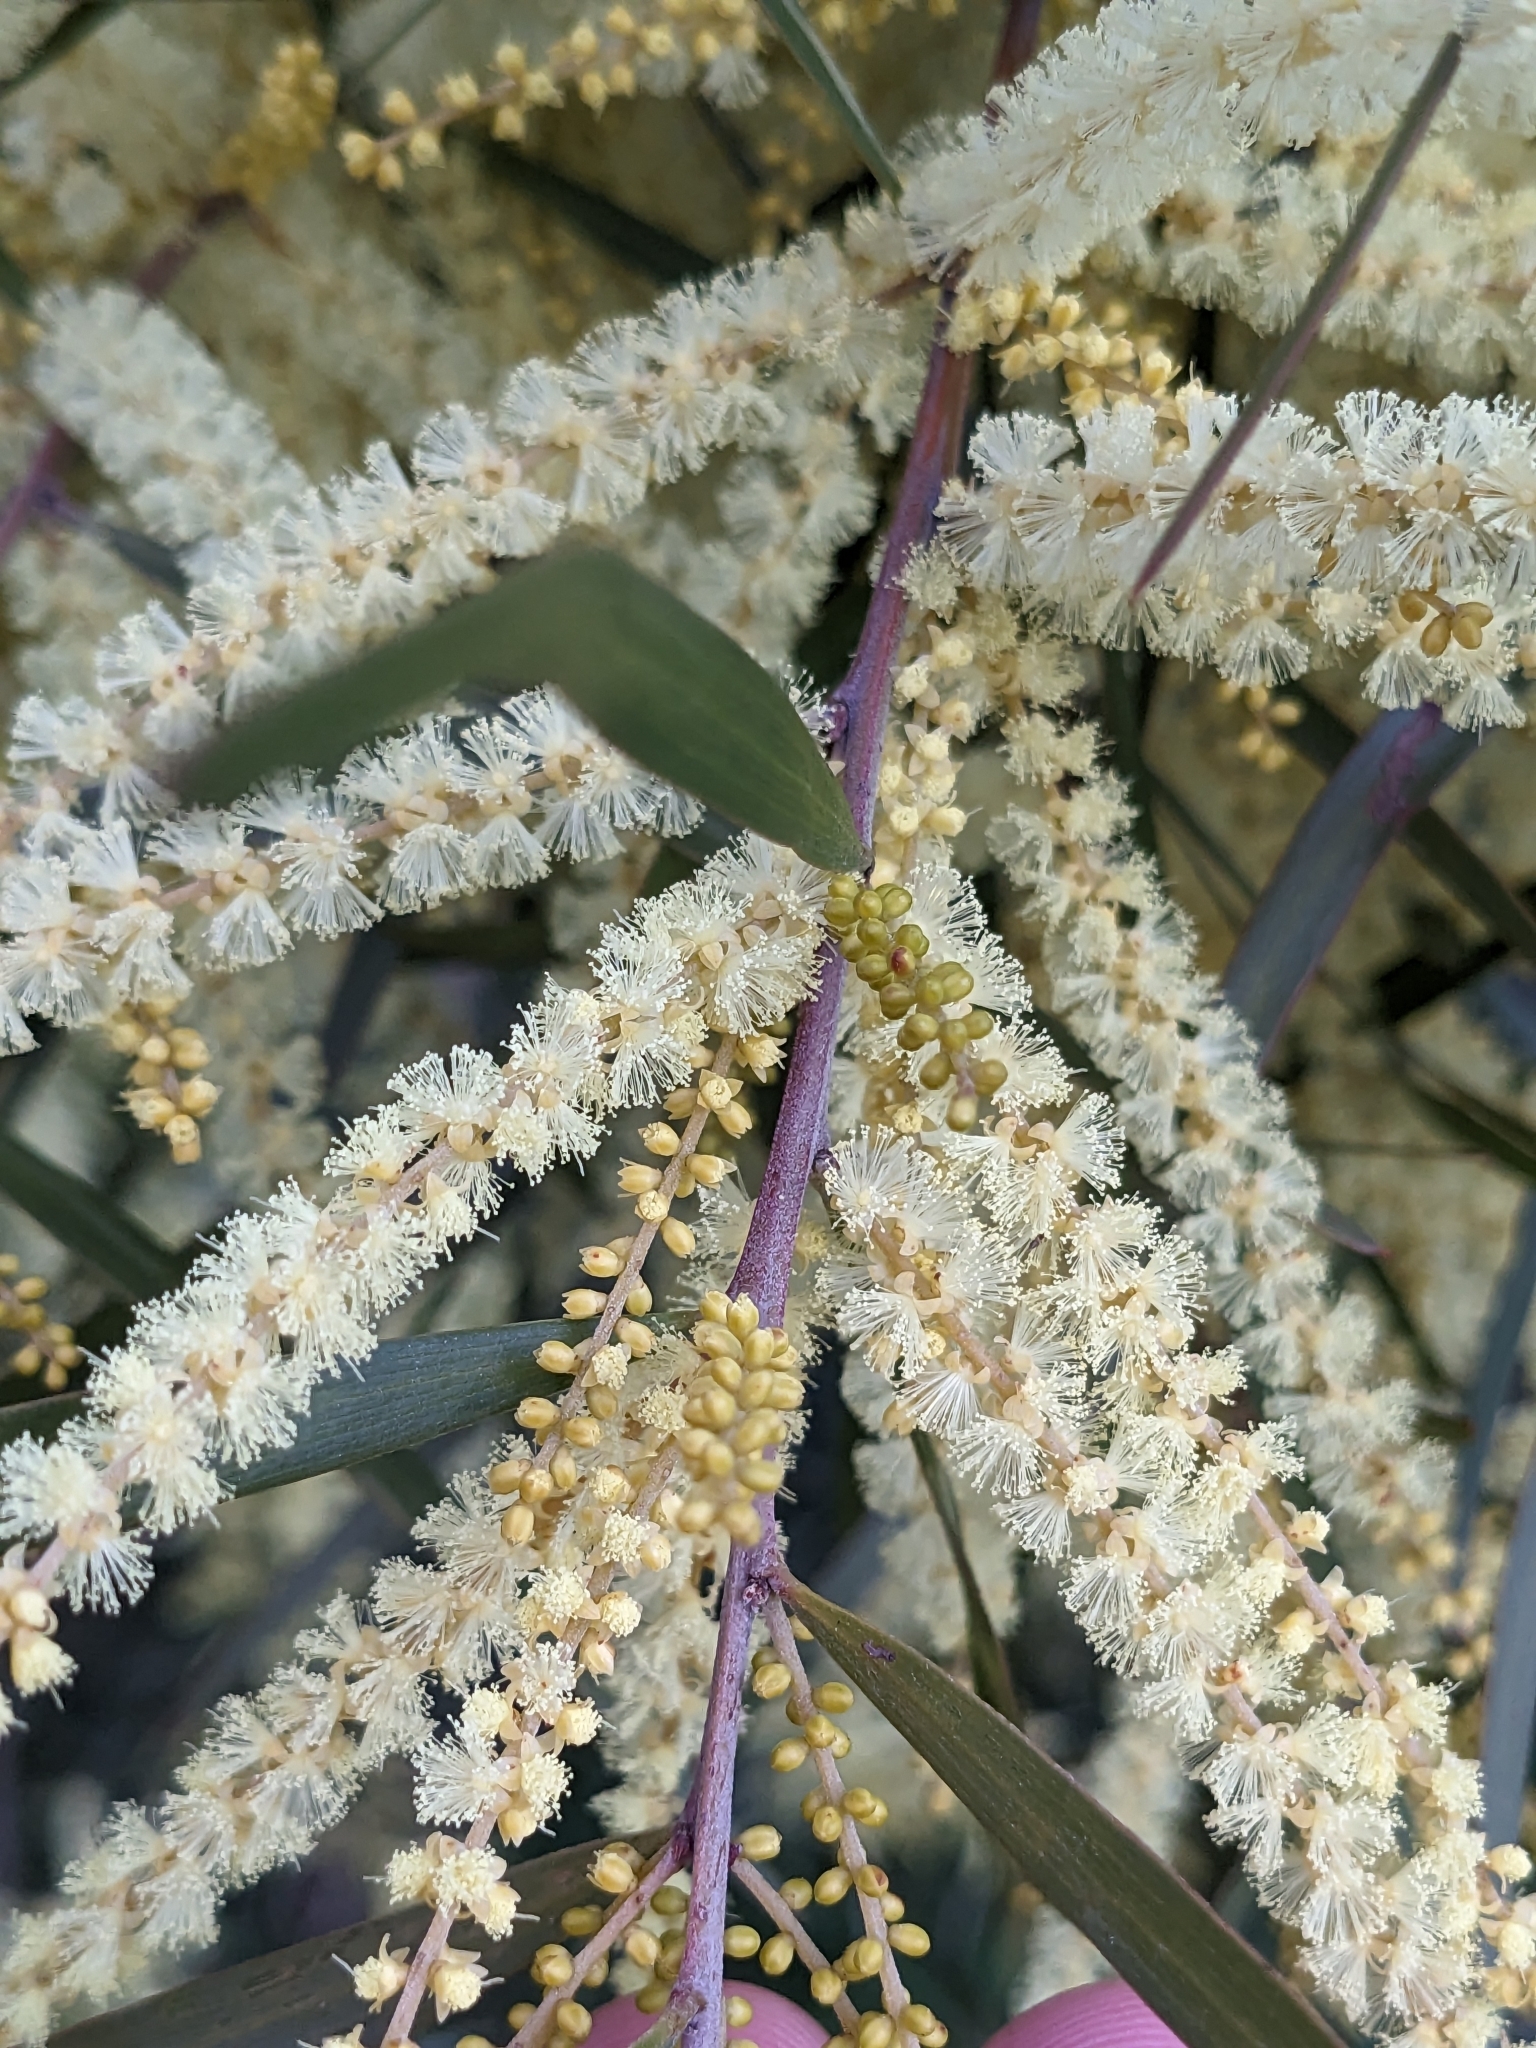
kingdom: Animalia
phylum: Arthropoda
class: Insecta
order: Coleoptera
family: Curculionidae
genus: Neolaemosaccus
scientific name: Neolaemosaccus narinus
